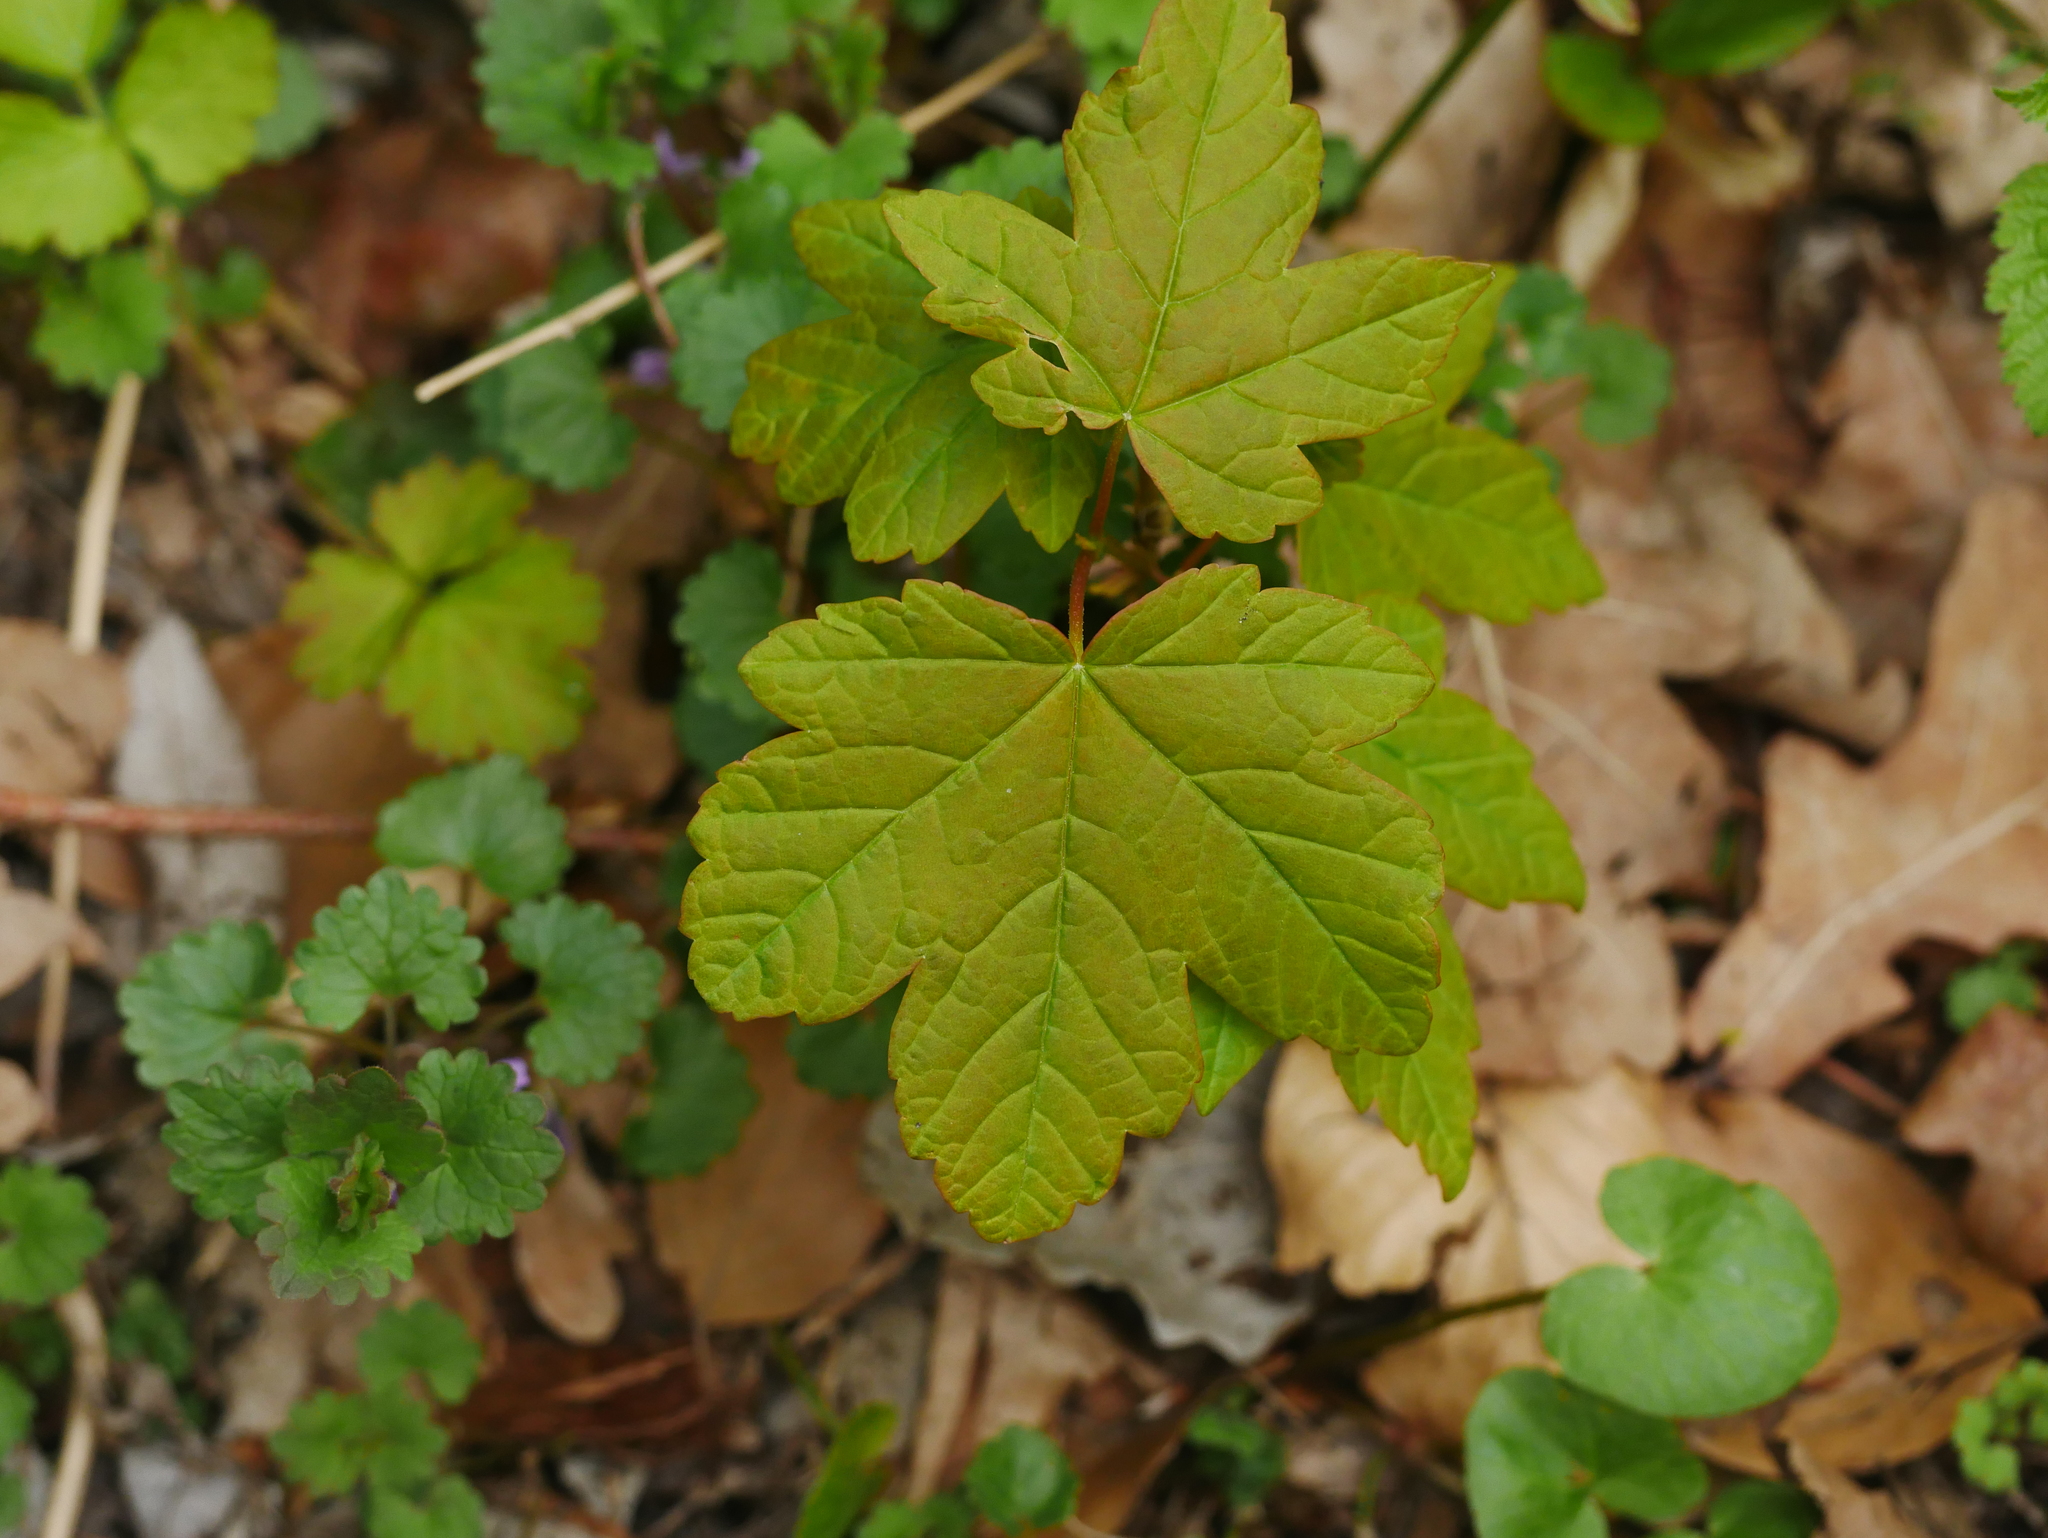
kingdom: Plantae
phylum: Tracheophyta
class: Magnoliopsida
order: Sapindales
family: Sapindaceae
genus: Acer
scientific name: Acer pseudoplatanus
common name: Sycamore
